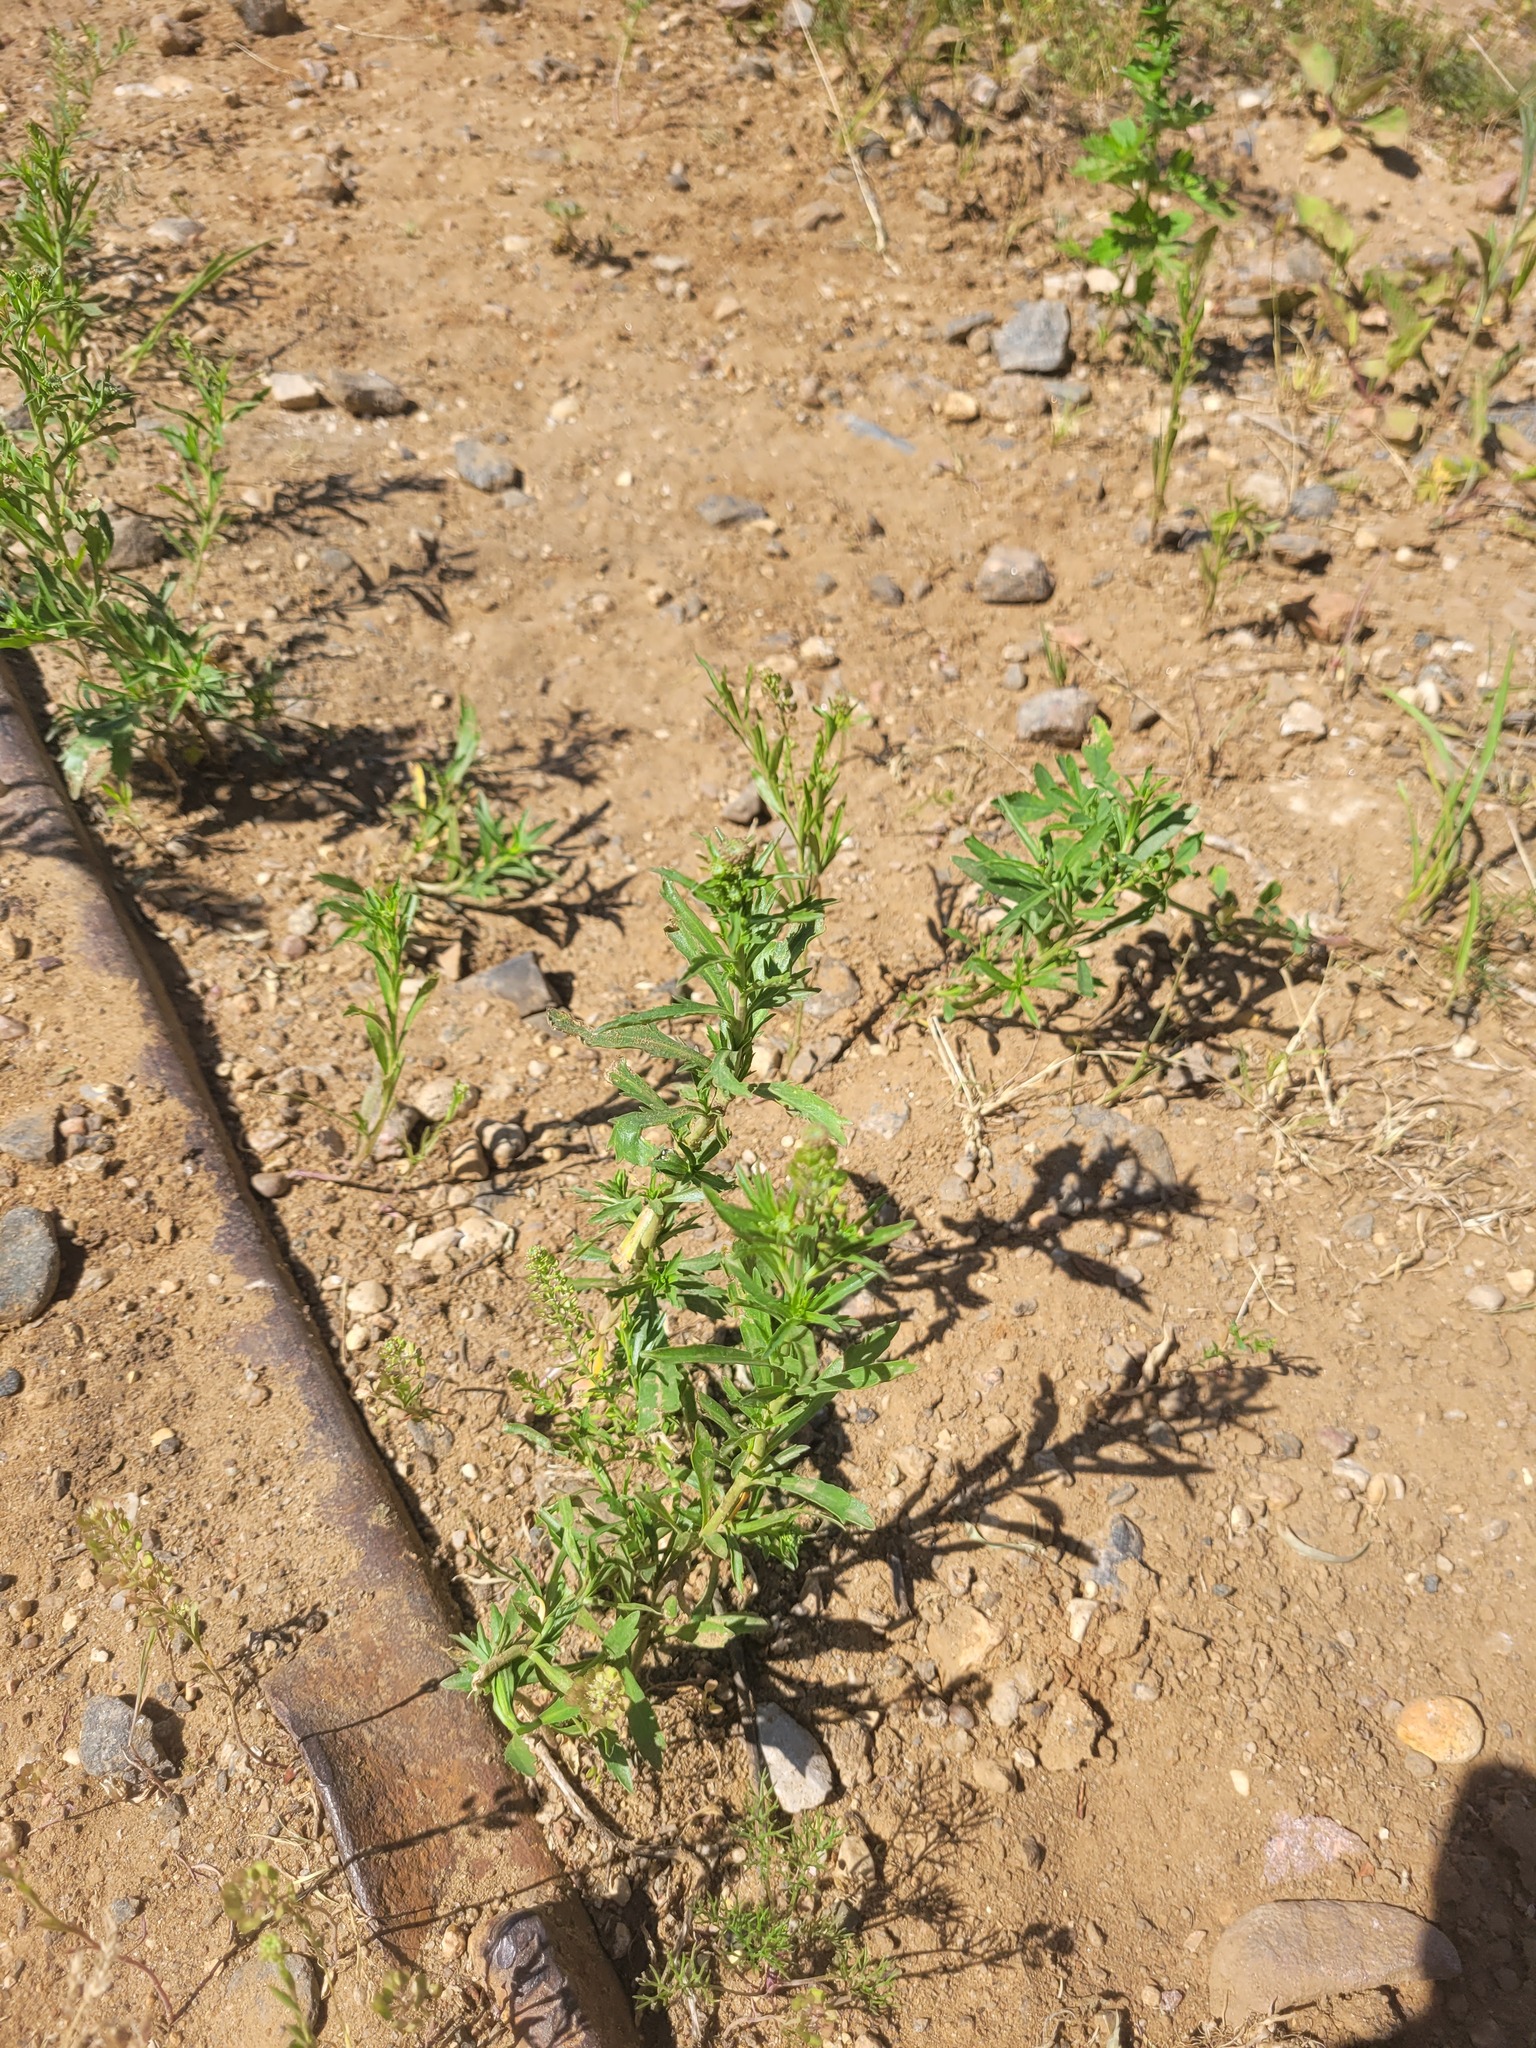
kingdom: Plantae
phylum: Tracheophyta
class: Magnoliopsida
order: Brassicales
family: Brassicaceae
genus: Lepidium
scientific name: Lepidium densiflorum
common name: Miner's pepperwort
